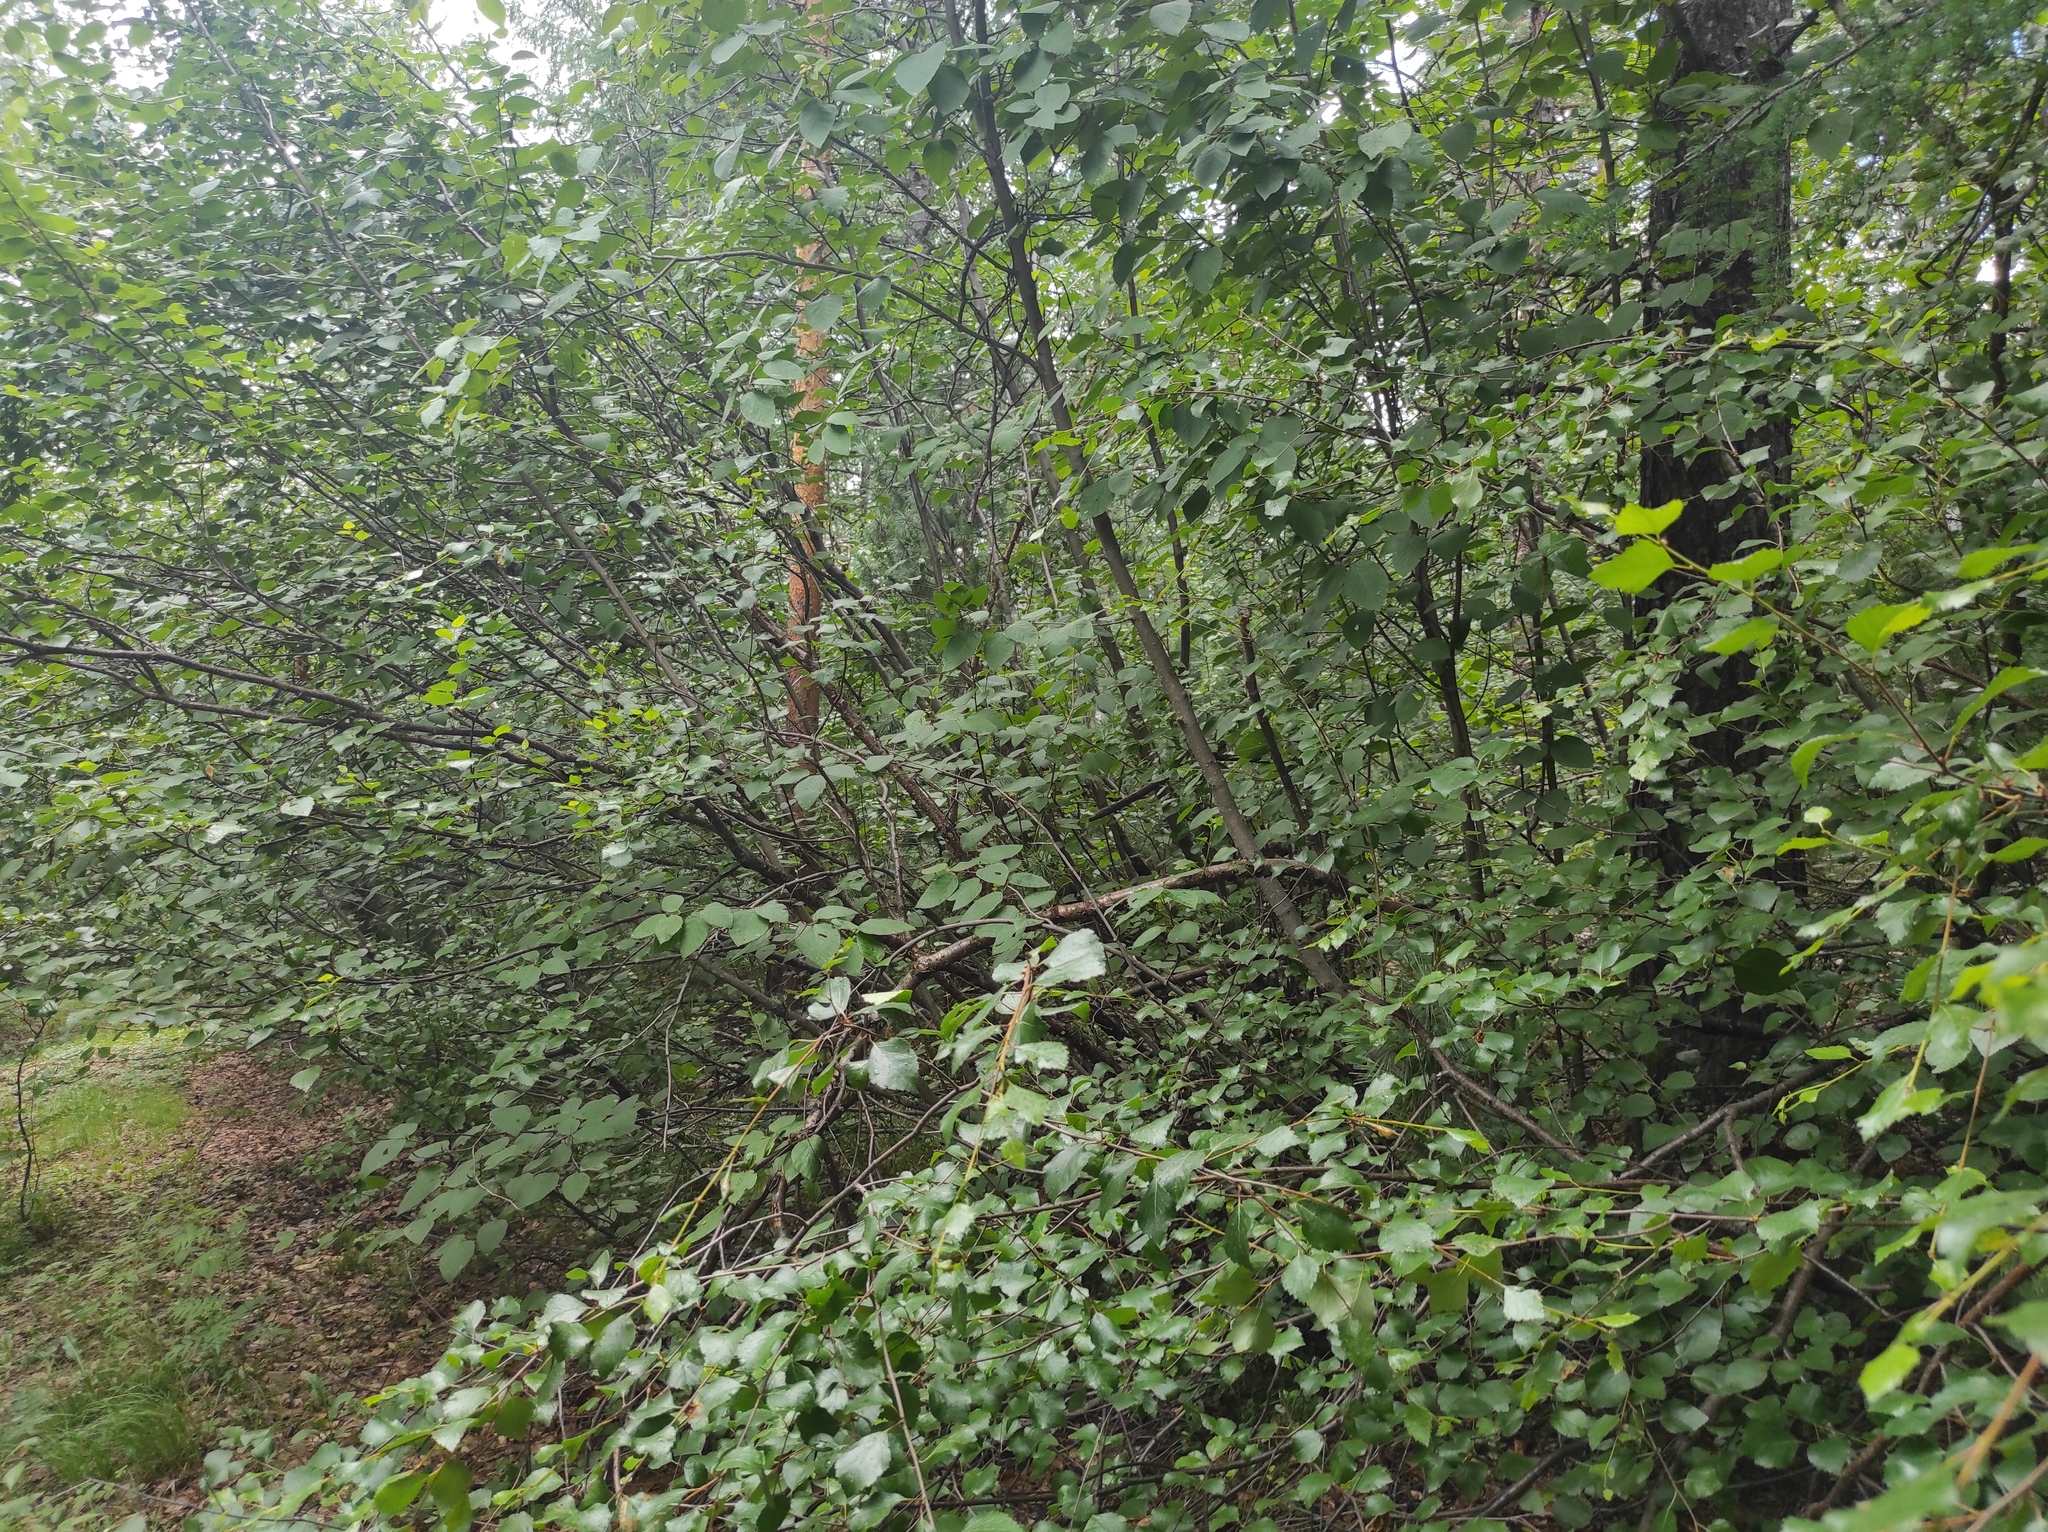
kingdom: Plantae
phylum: Tracheophyta
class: Magnoliopsida
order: Fagales
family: Betulaceae
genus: Alnus
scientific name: Alnus alnobetula
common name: Green alder
